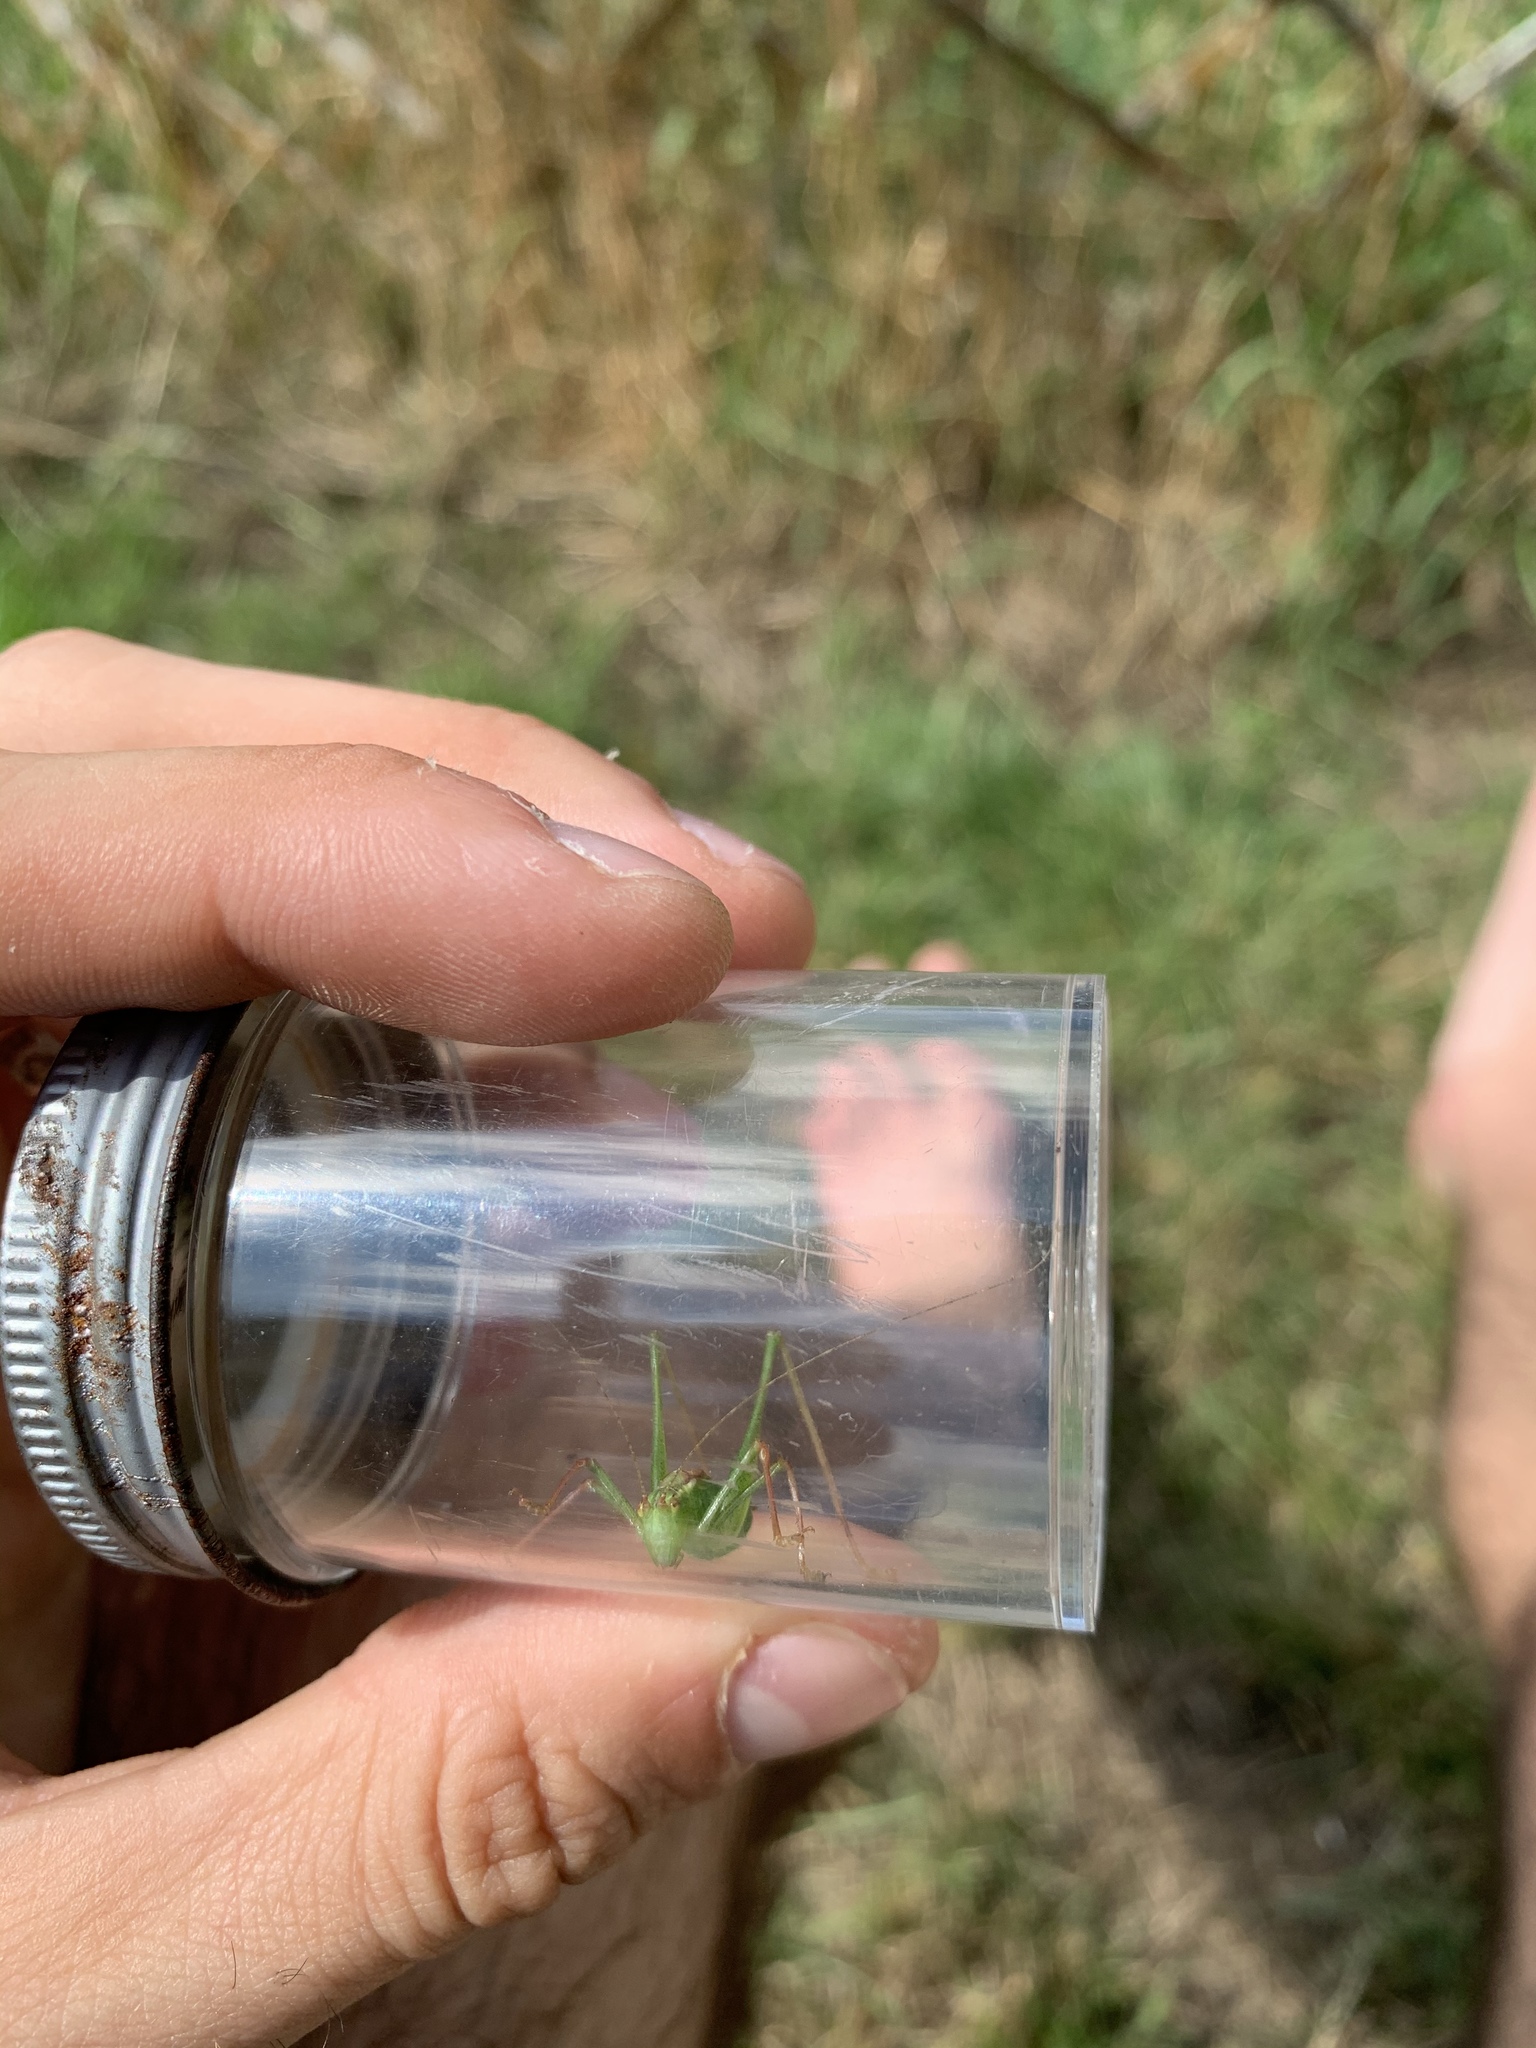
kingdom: Animalia
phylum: Arthropoda
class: Insecta
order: Orthoptera
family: Tettigoniidae
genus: Leptophyes
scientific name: Leptophyes punctatissima
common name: Speckled bush-cricket
